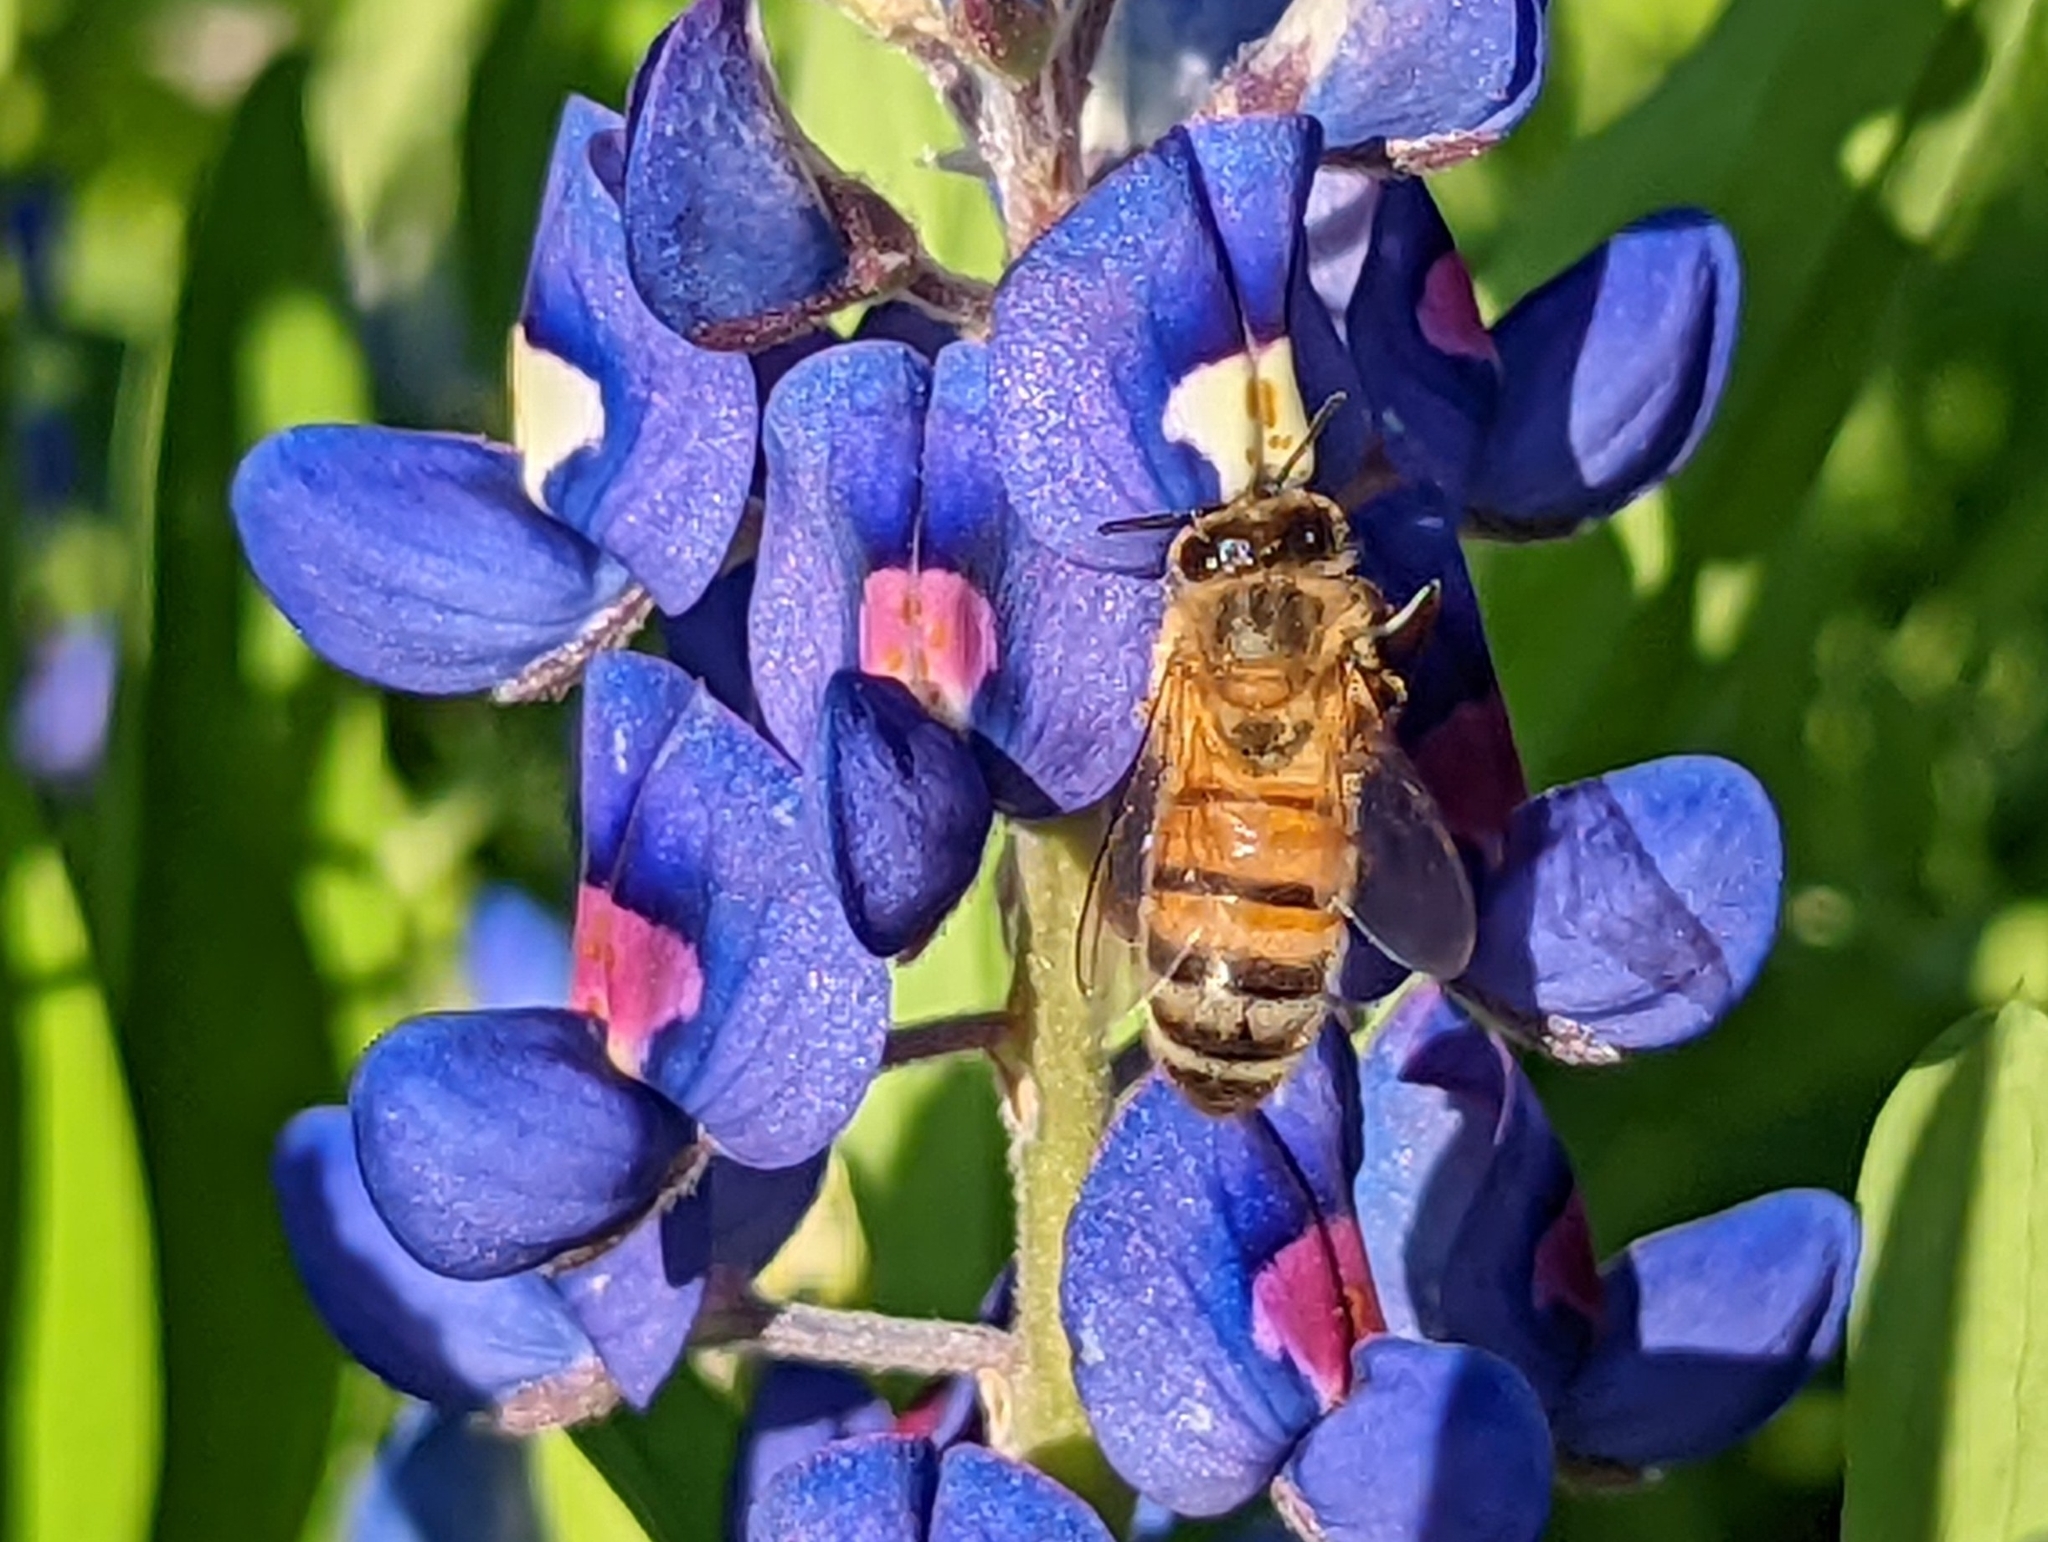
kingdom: Animalia
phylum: Arthropoda
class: Insecta
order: Hymenoptera
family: Apidae
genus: Apis
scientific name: Apis mellifera
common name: Honey bee
